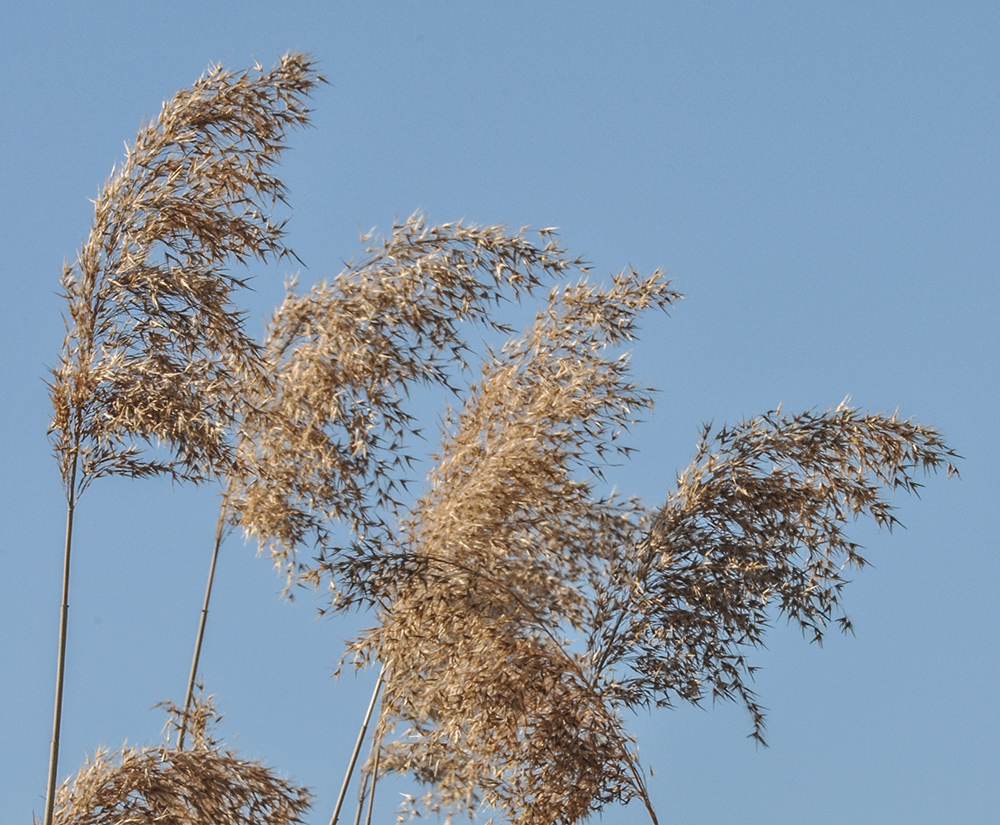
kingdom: Plantae
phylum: Tracheophyta
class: Liliopsida
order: Poales
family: Poaceae
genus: Phragmites
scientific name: Phragmites australis
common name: Common reed
